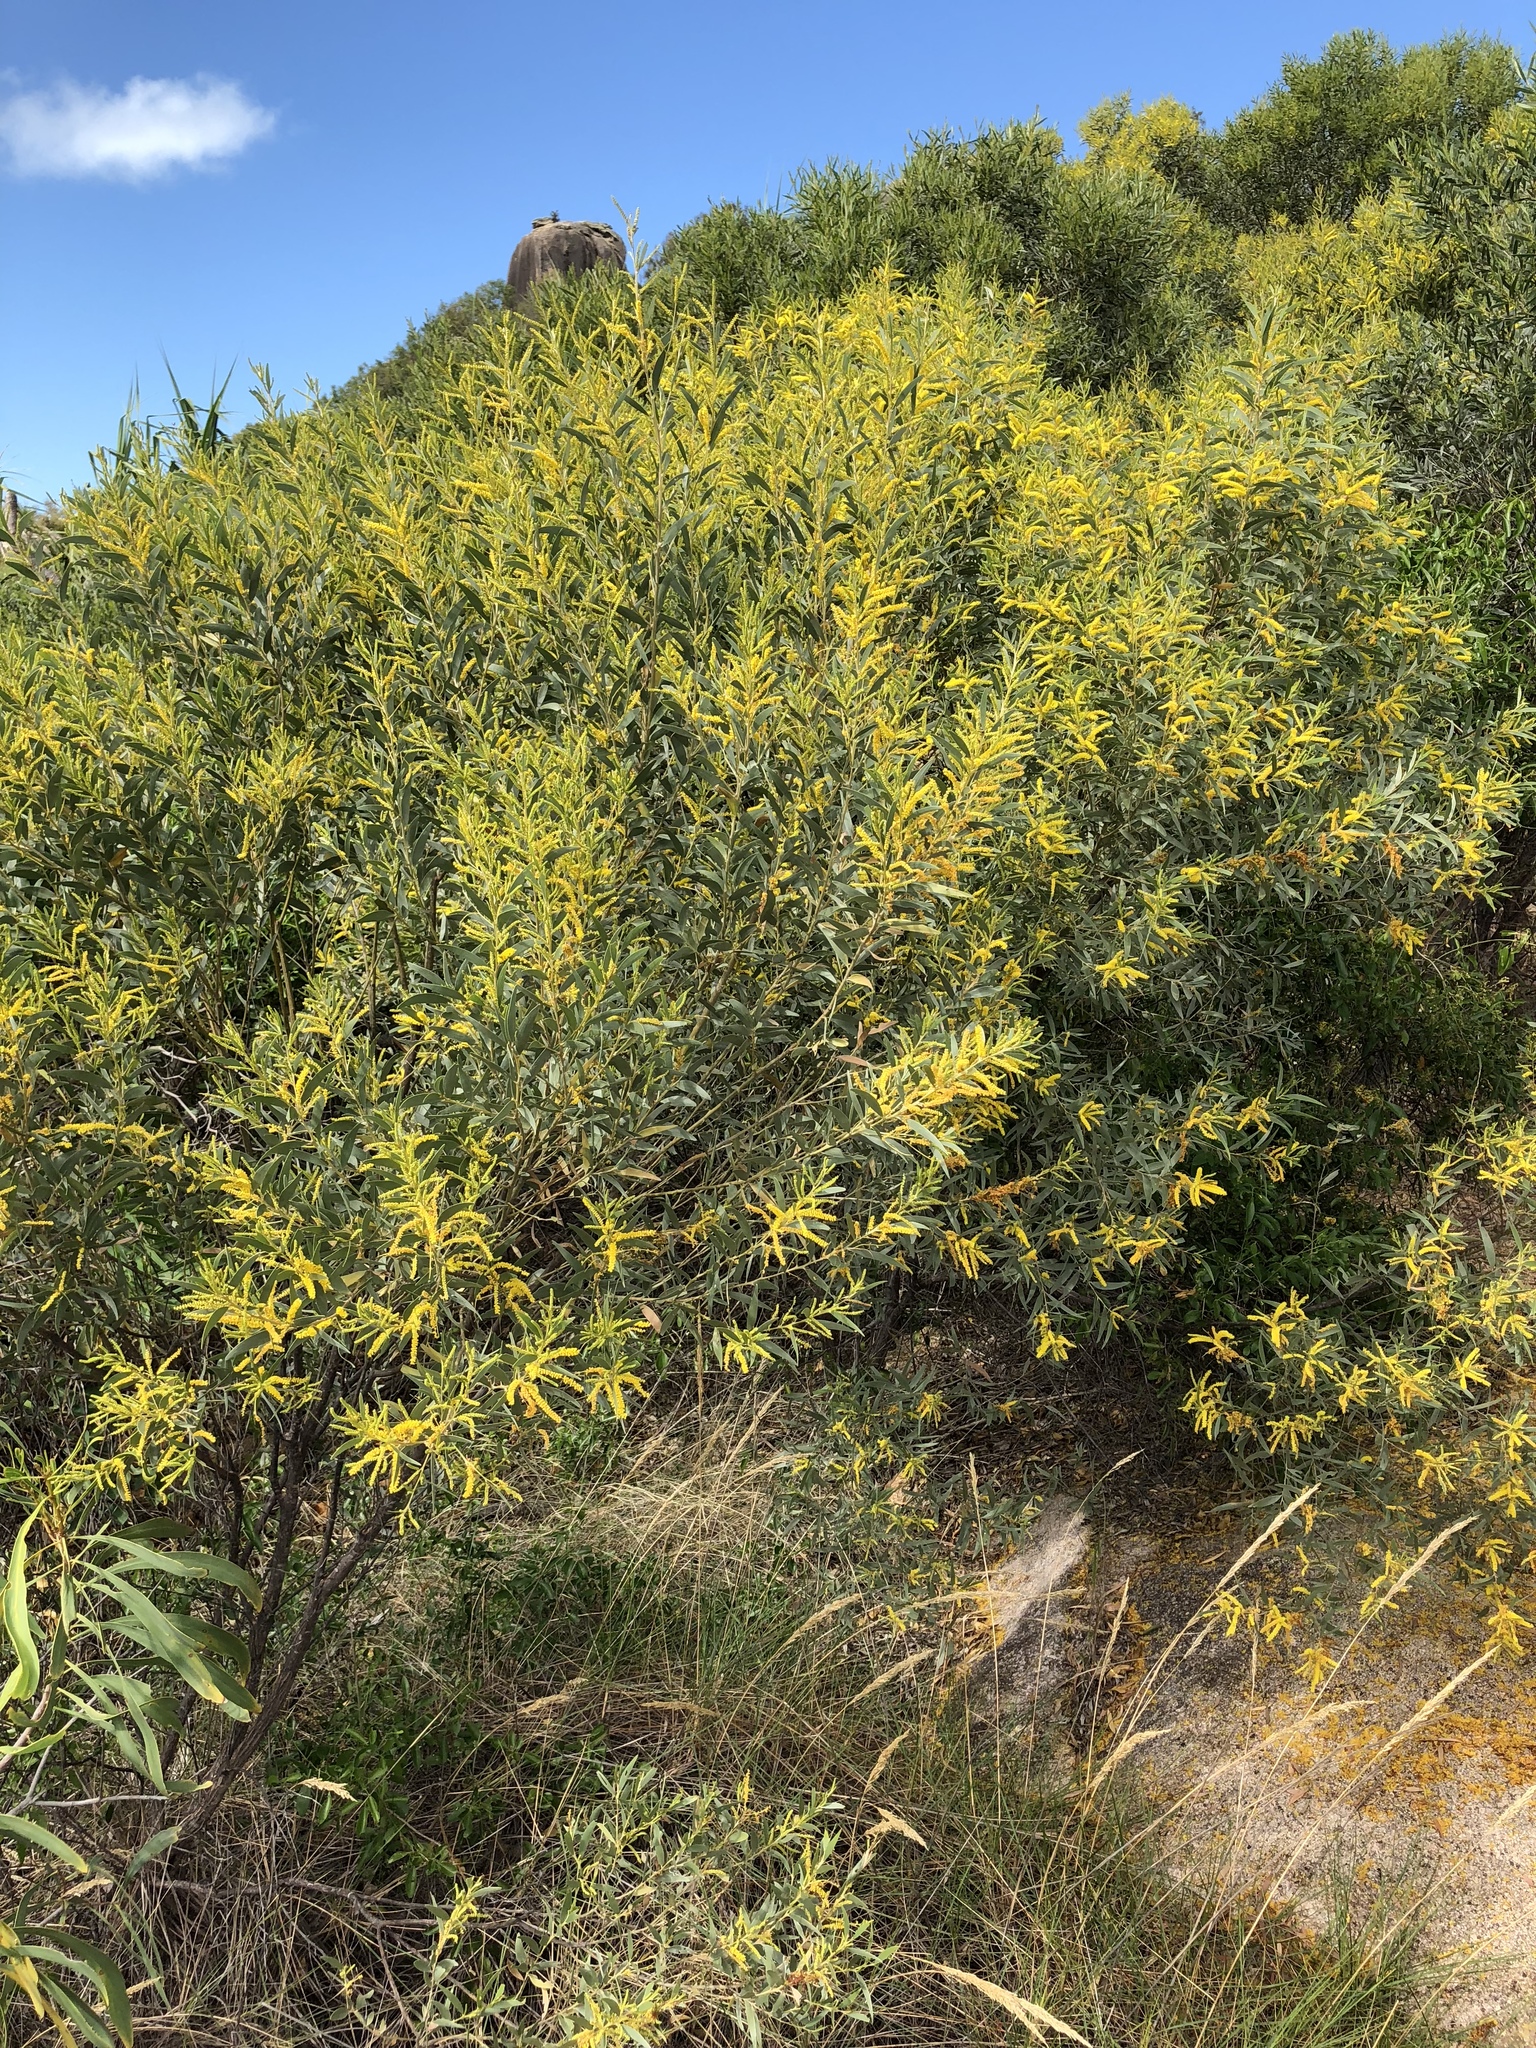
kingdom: Plantae
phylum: Tracheophyta
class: Magnoliopsida
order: Fabales
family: Fabaceae
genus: Acacia
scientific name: Acacia leptostachya
